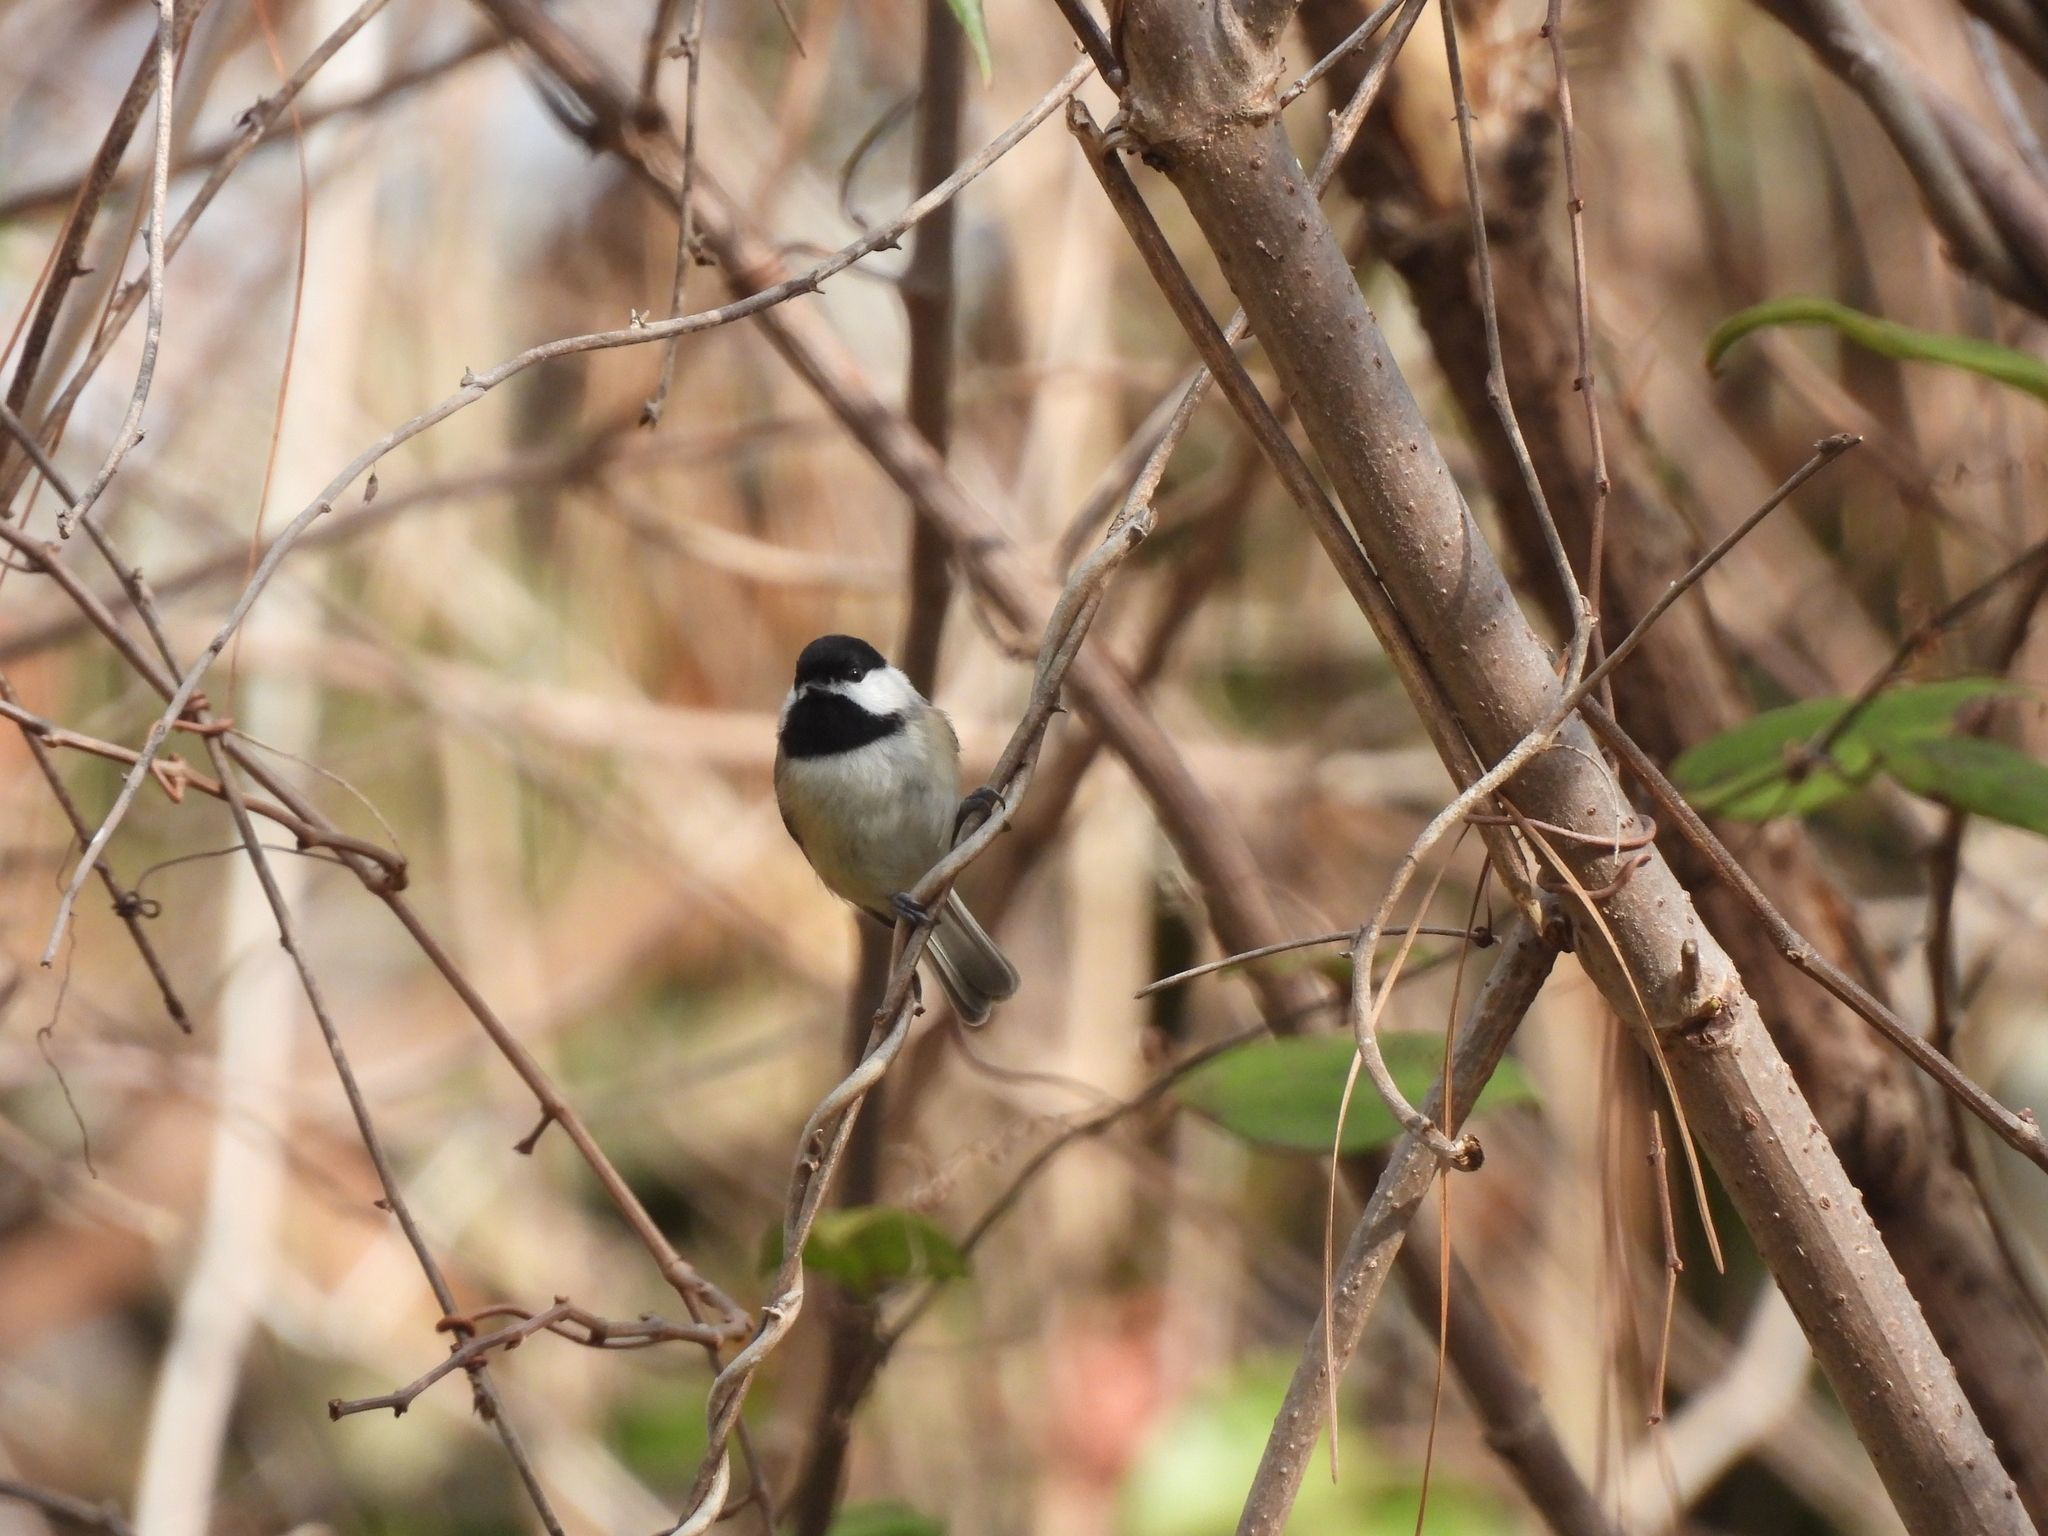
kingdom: Animalia
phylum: Chordata
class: Aves
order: Passeriformes
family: Paridae
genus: Poecile
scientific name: Poecile carolinensis
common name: Carolina chickadee
